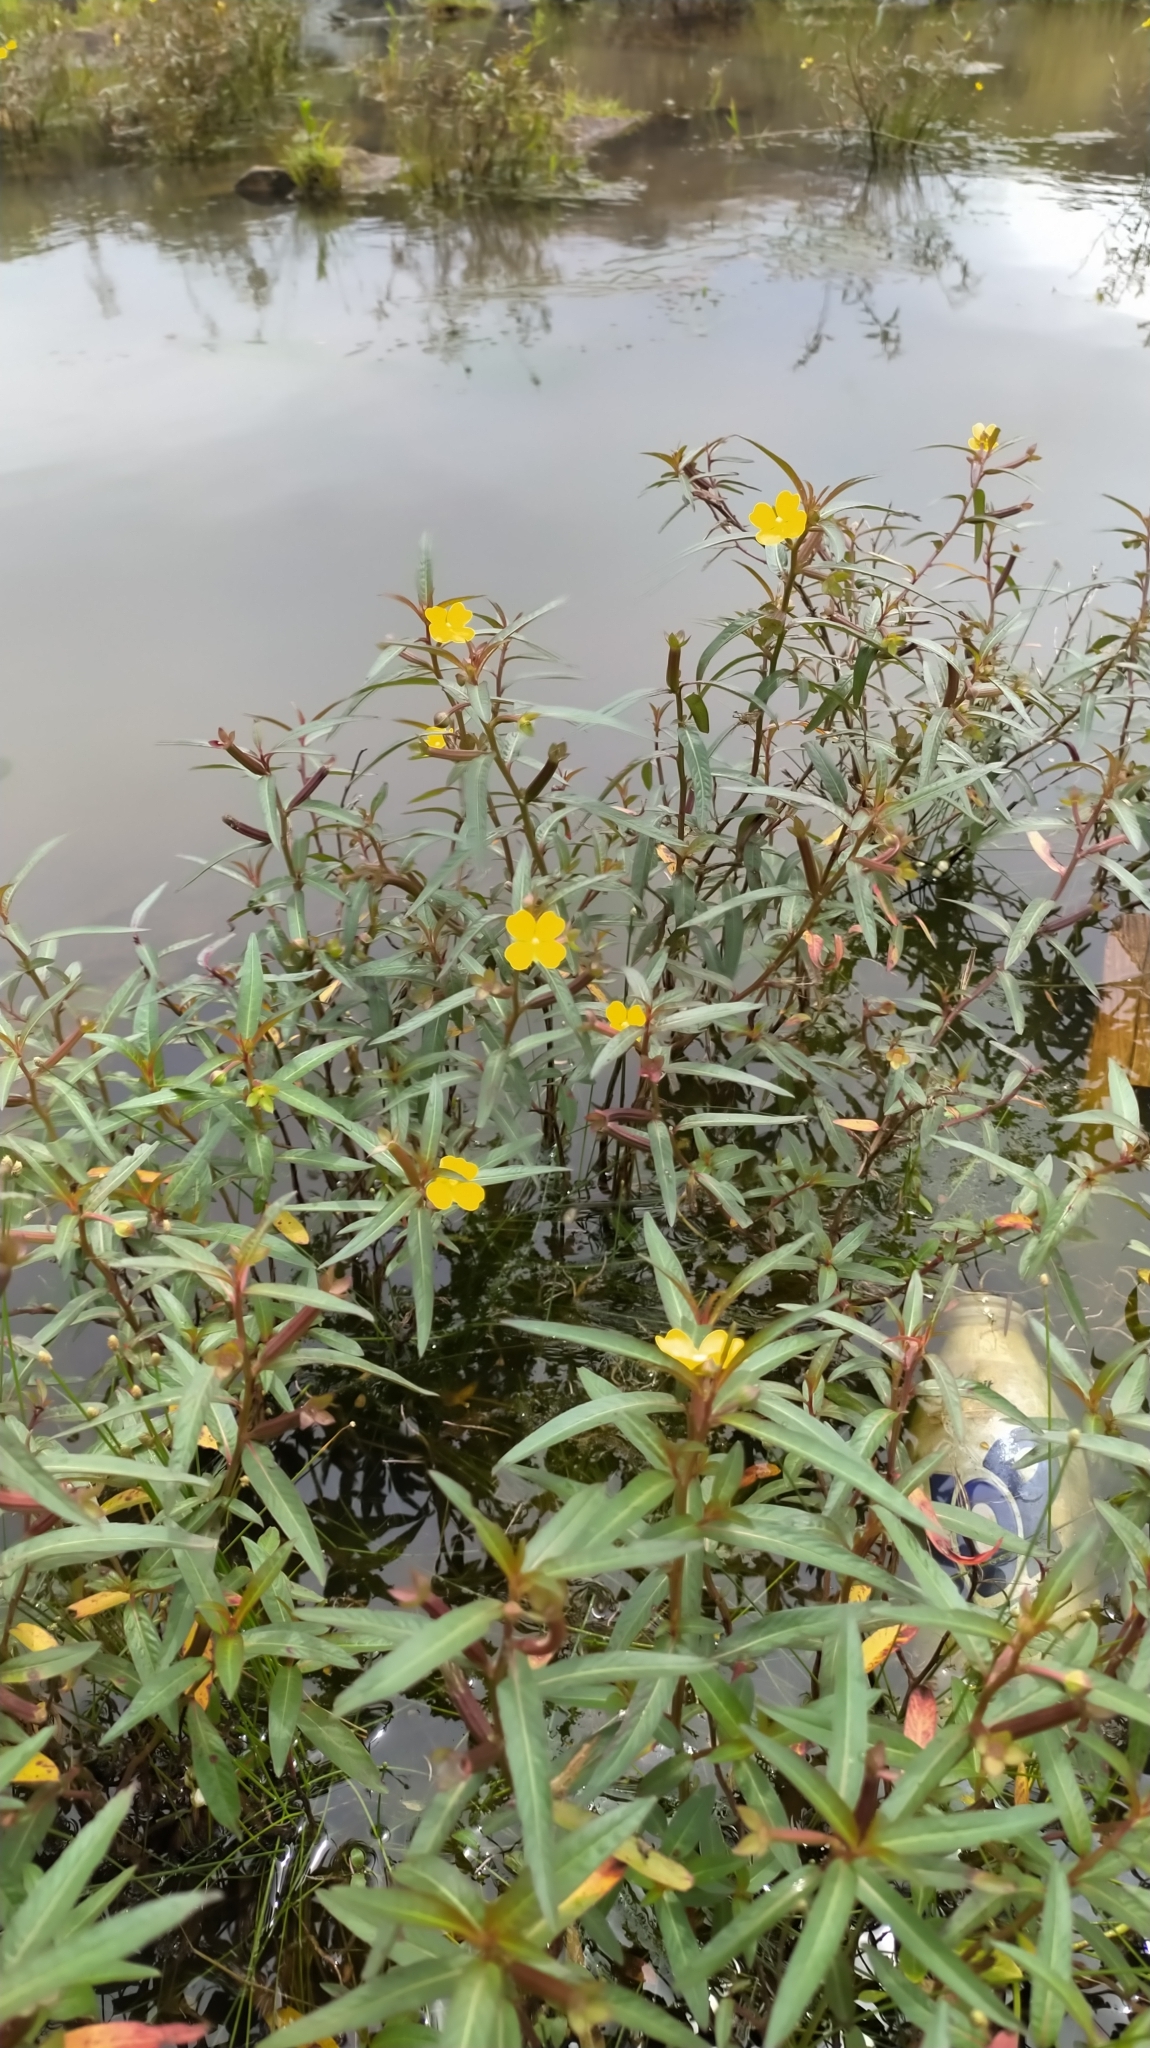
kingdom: Plantae
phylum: Tracheophyta
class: Magnoliopsida
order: Myrtales
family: Onagraceae
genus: Ludwigia
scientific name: Ludwigia octovalvis
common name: Water-primrose
